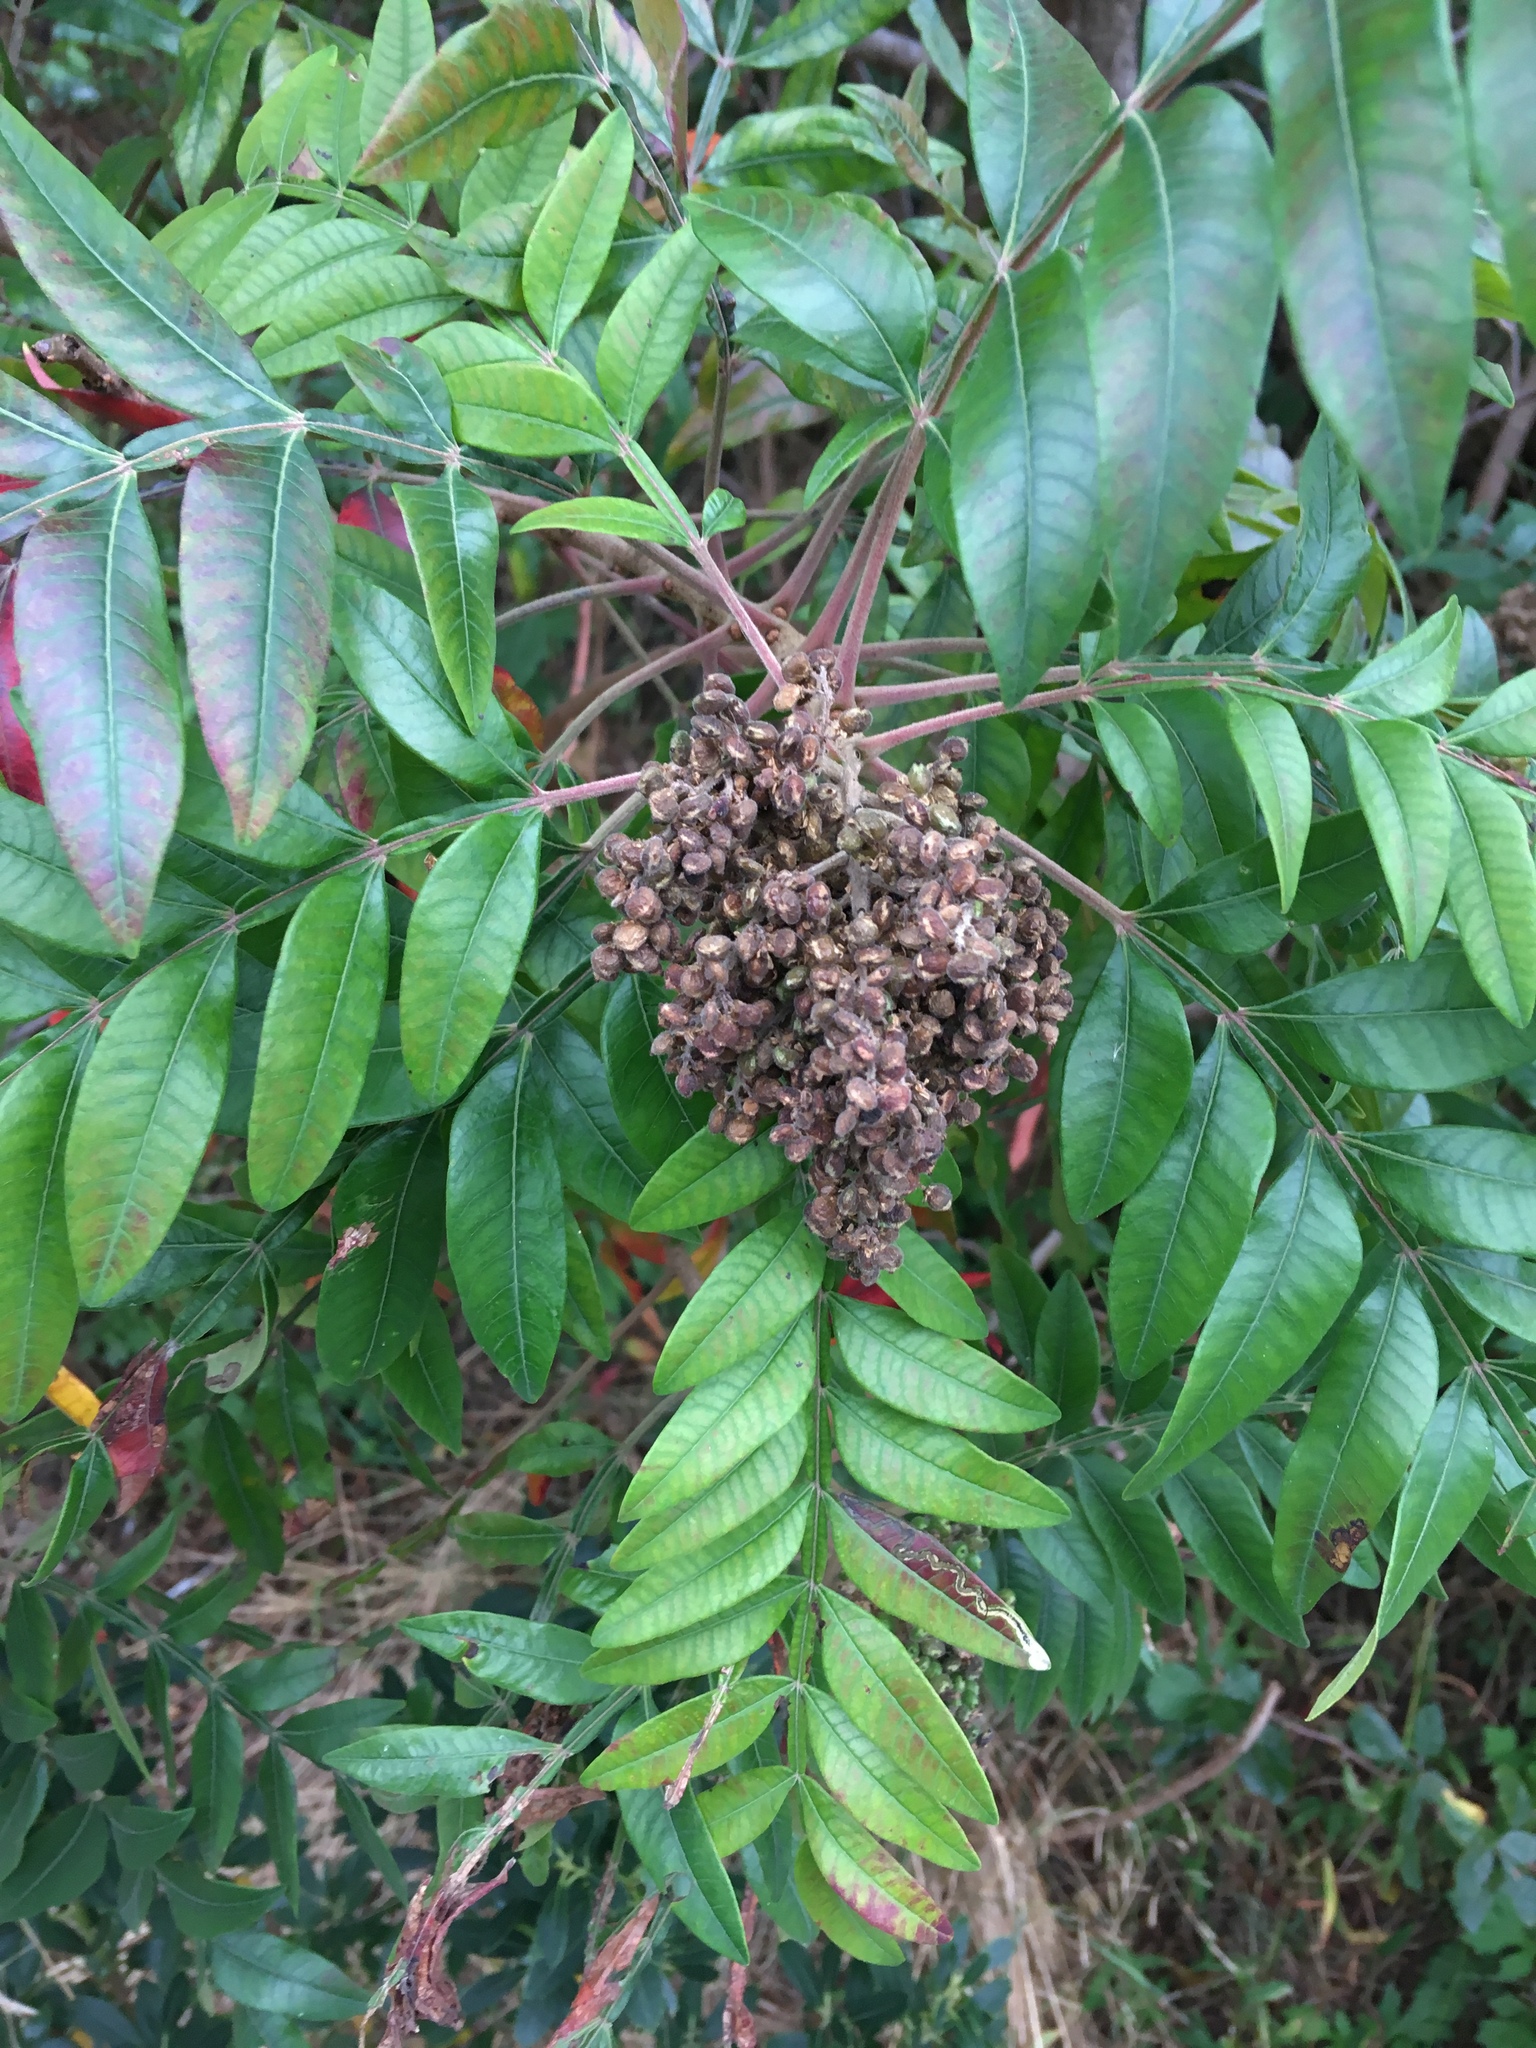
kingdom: Plantae
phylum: Tracheophyta
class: Magnoliopsida
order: Sapindales
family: Anacardiaceae
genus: Rhus
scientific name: Rhus copallina
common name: Shining sumac
